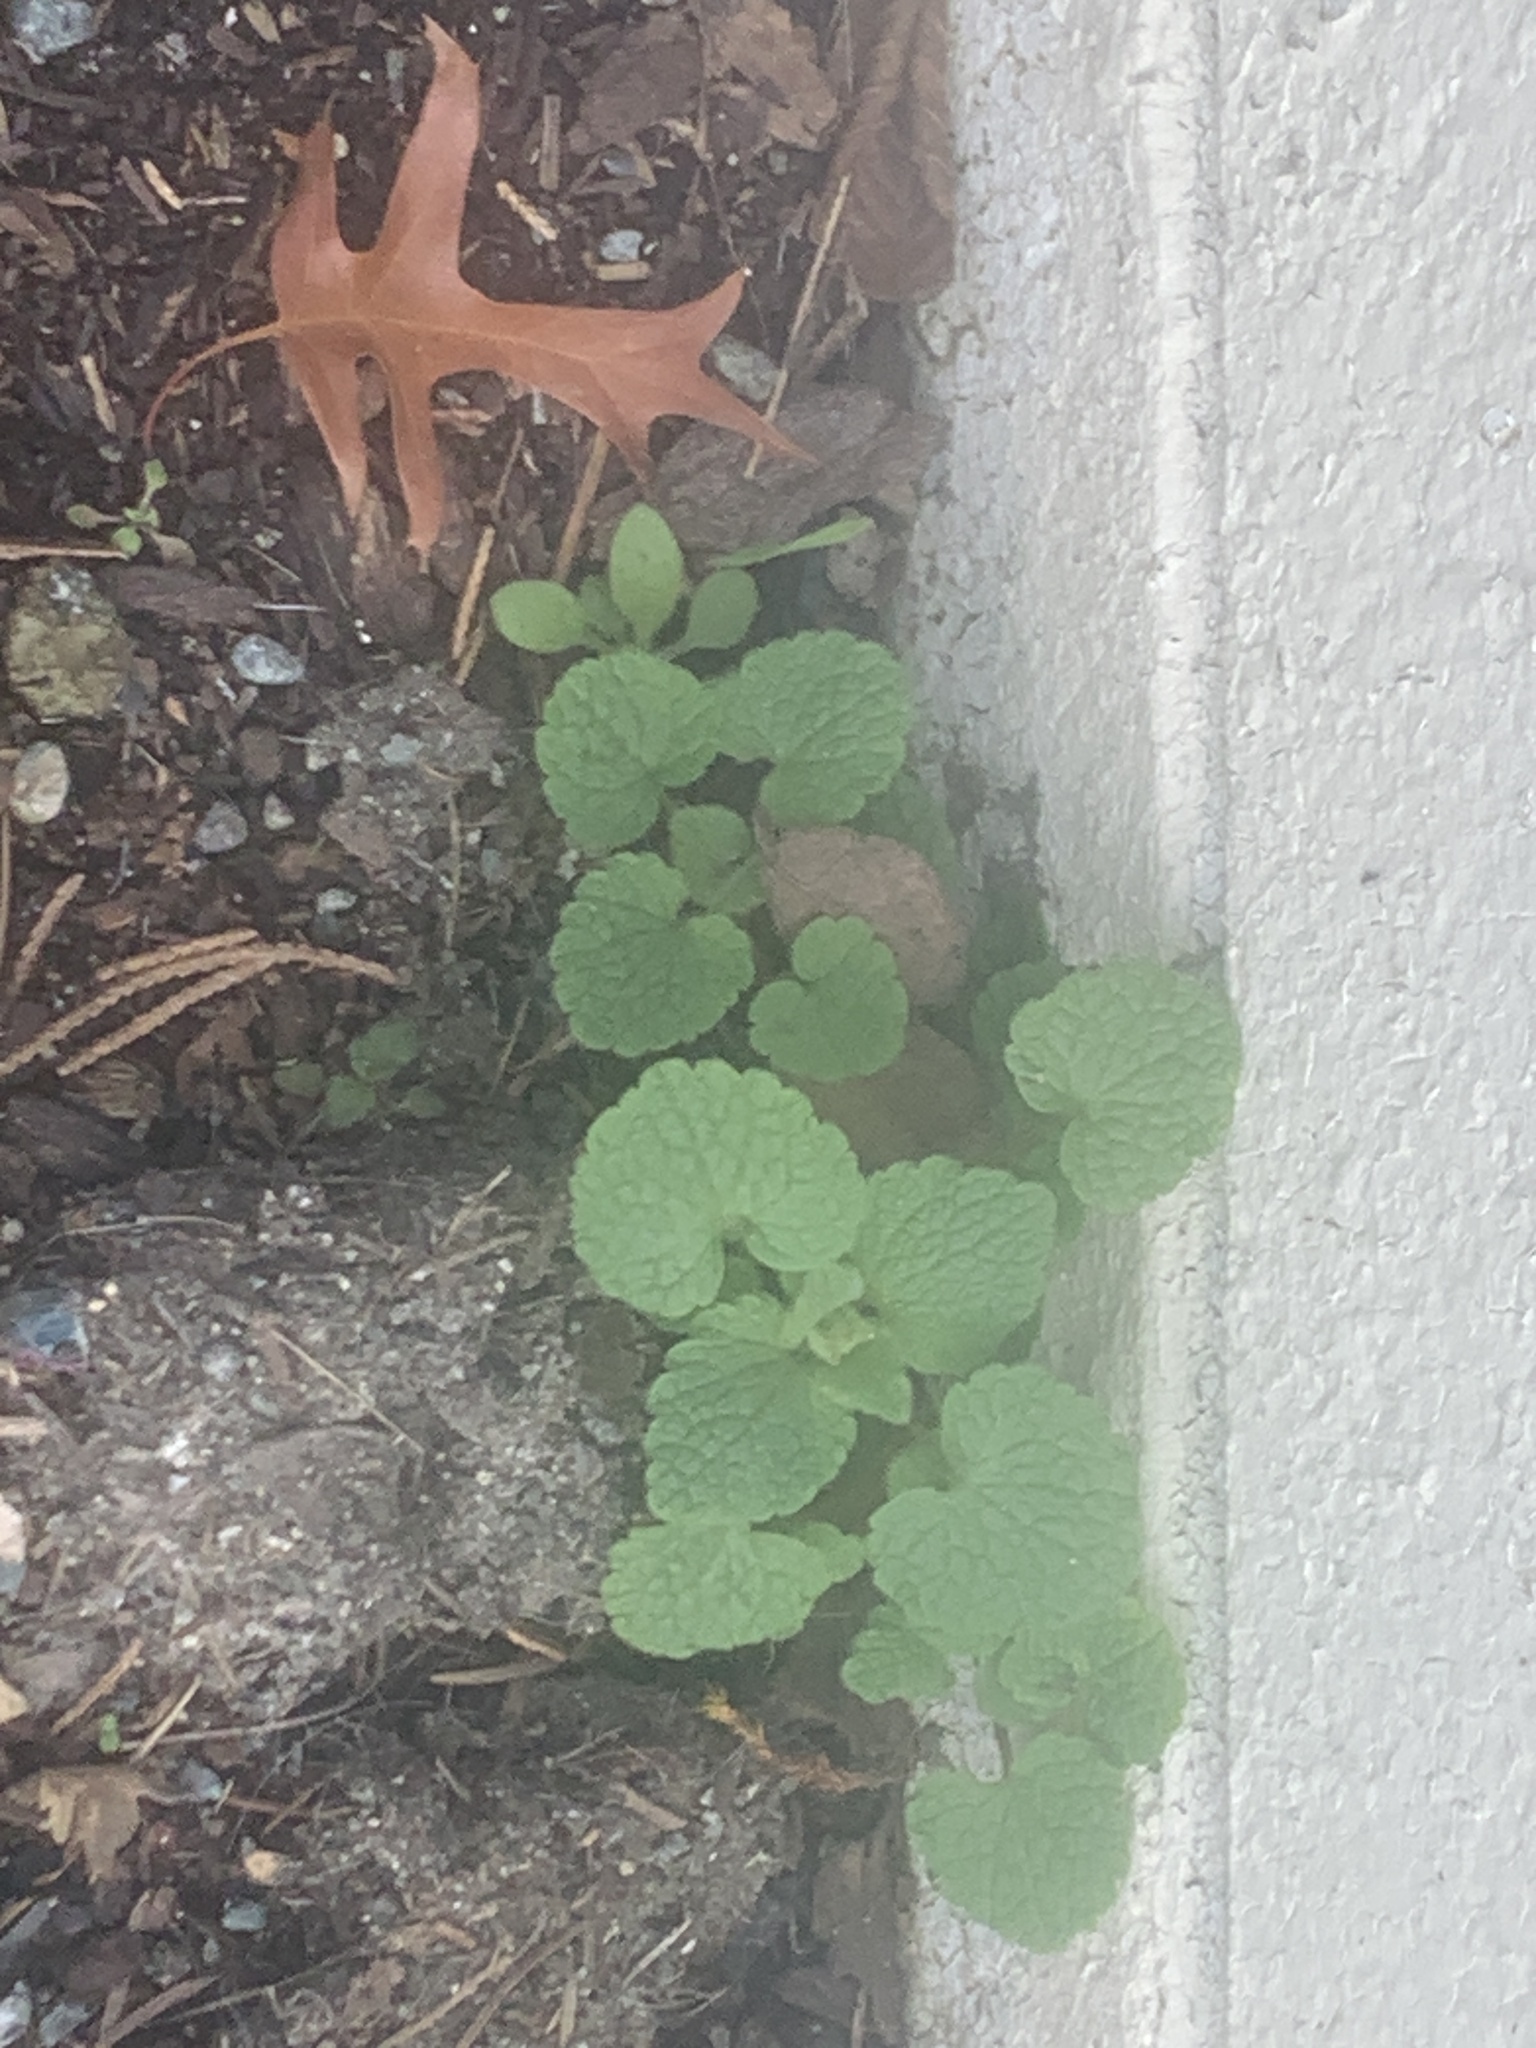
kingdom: Plantae
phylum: Tracheophyta
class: Magnoliopsida
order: Lamiales
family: Lamiaceae
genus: Lamium
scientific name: Lamium purpureum
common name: Red dead-nettle
